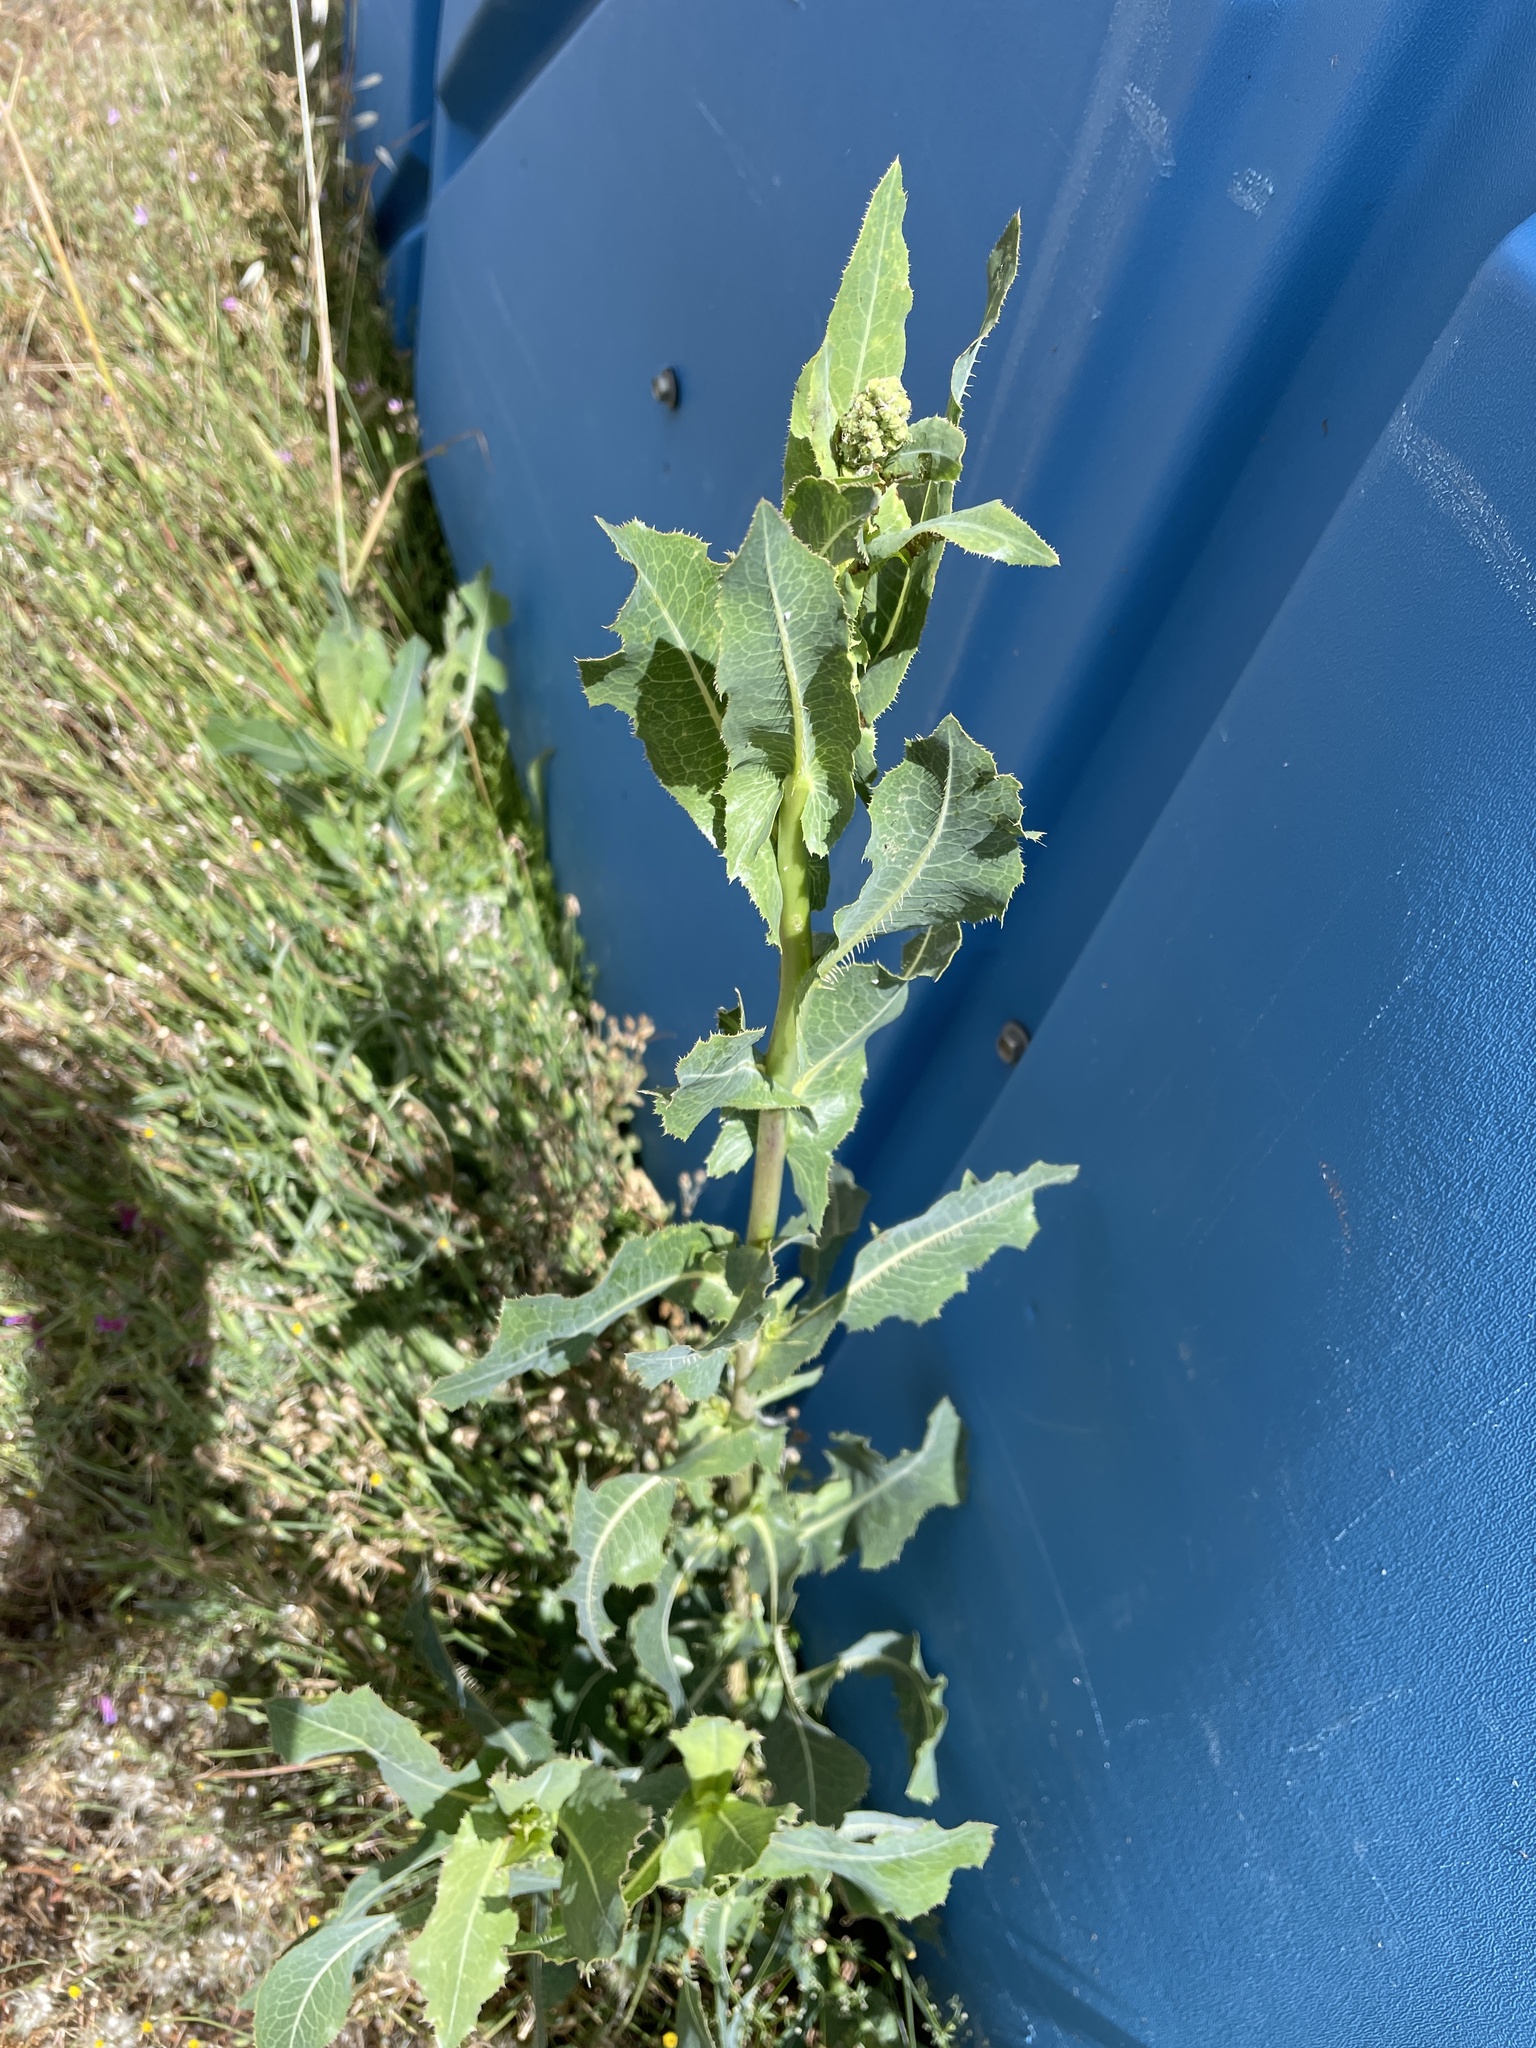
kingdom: Plantae
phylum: Tracheophyta
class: Magnoliopsida
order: Asterales
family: Asteraceae
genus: Lactuca
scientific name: Lactuca serriola
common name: Prickly lettuce
